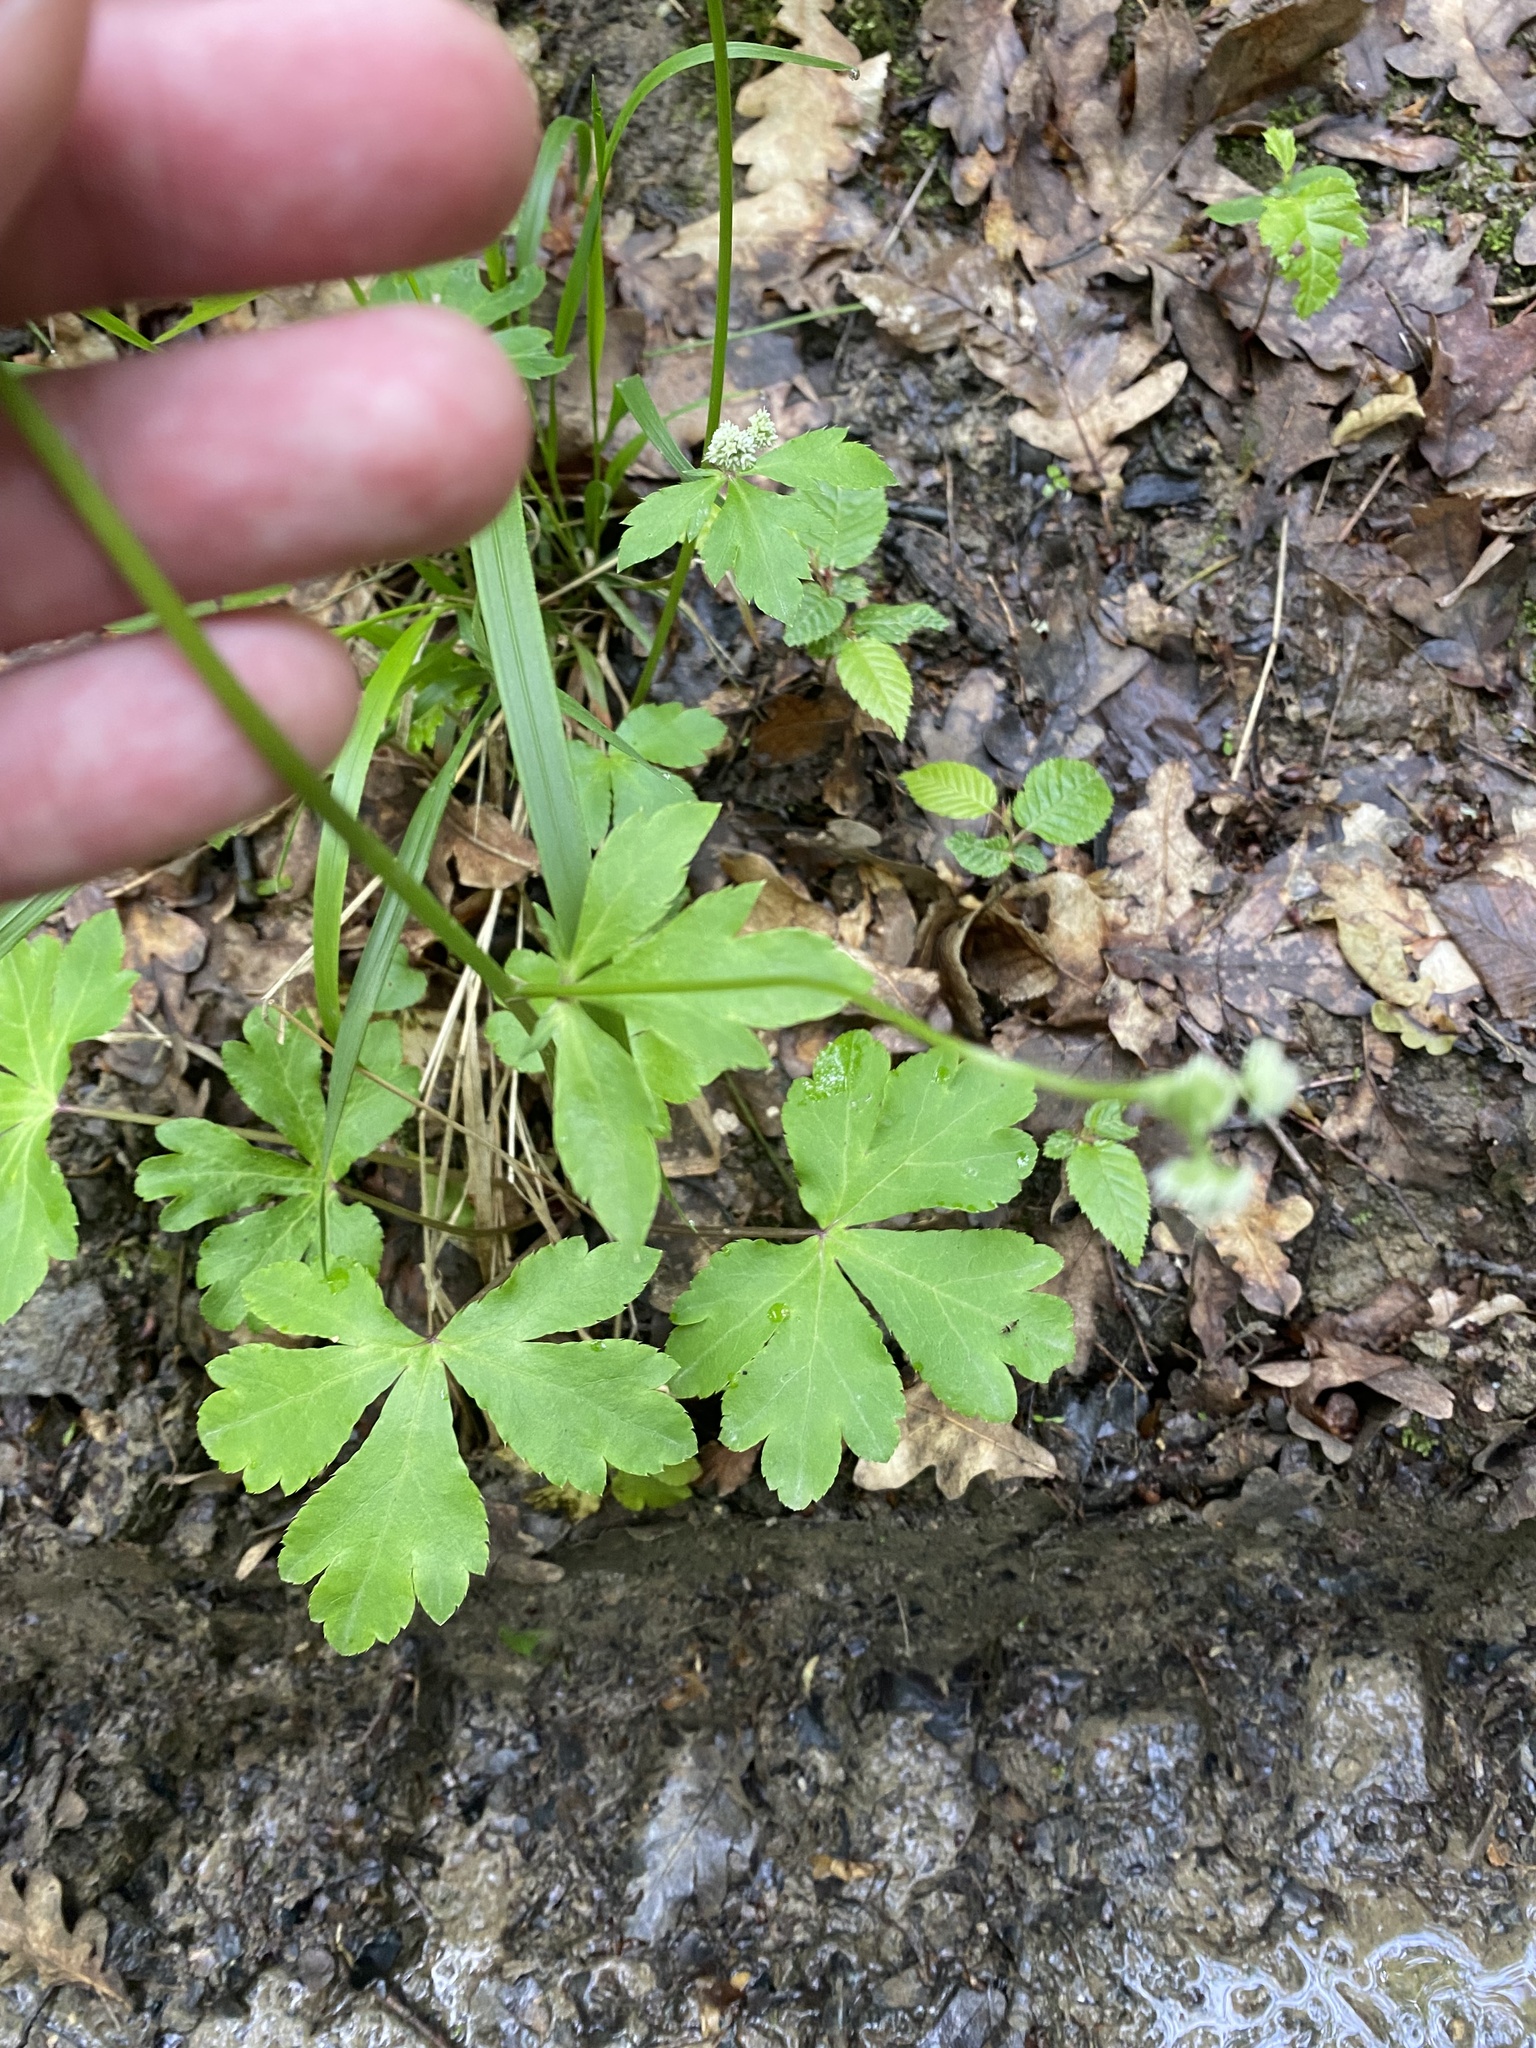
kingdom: Plantae
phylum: Tracheophyta
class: Magnoliopsida
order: Apiales
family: Apiaceae
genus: Sanicula
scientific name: Sanicula europaea
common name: Sanicle
